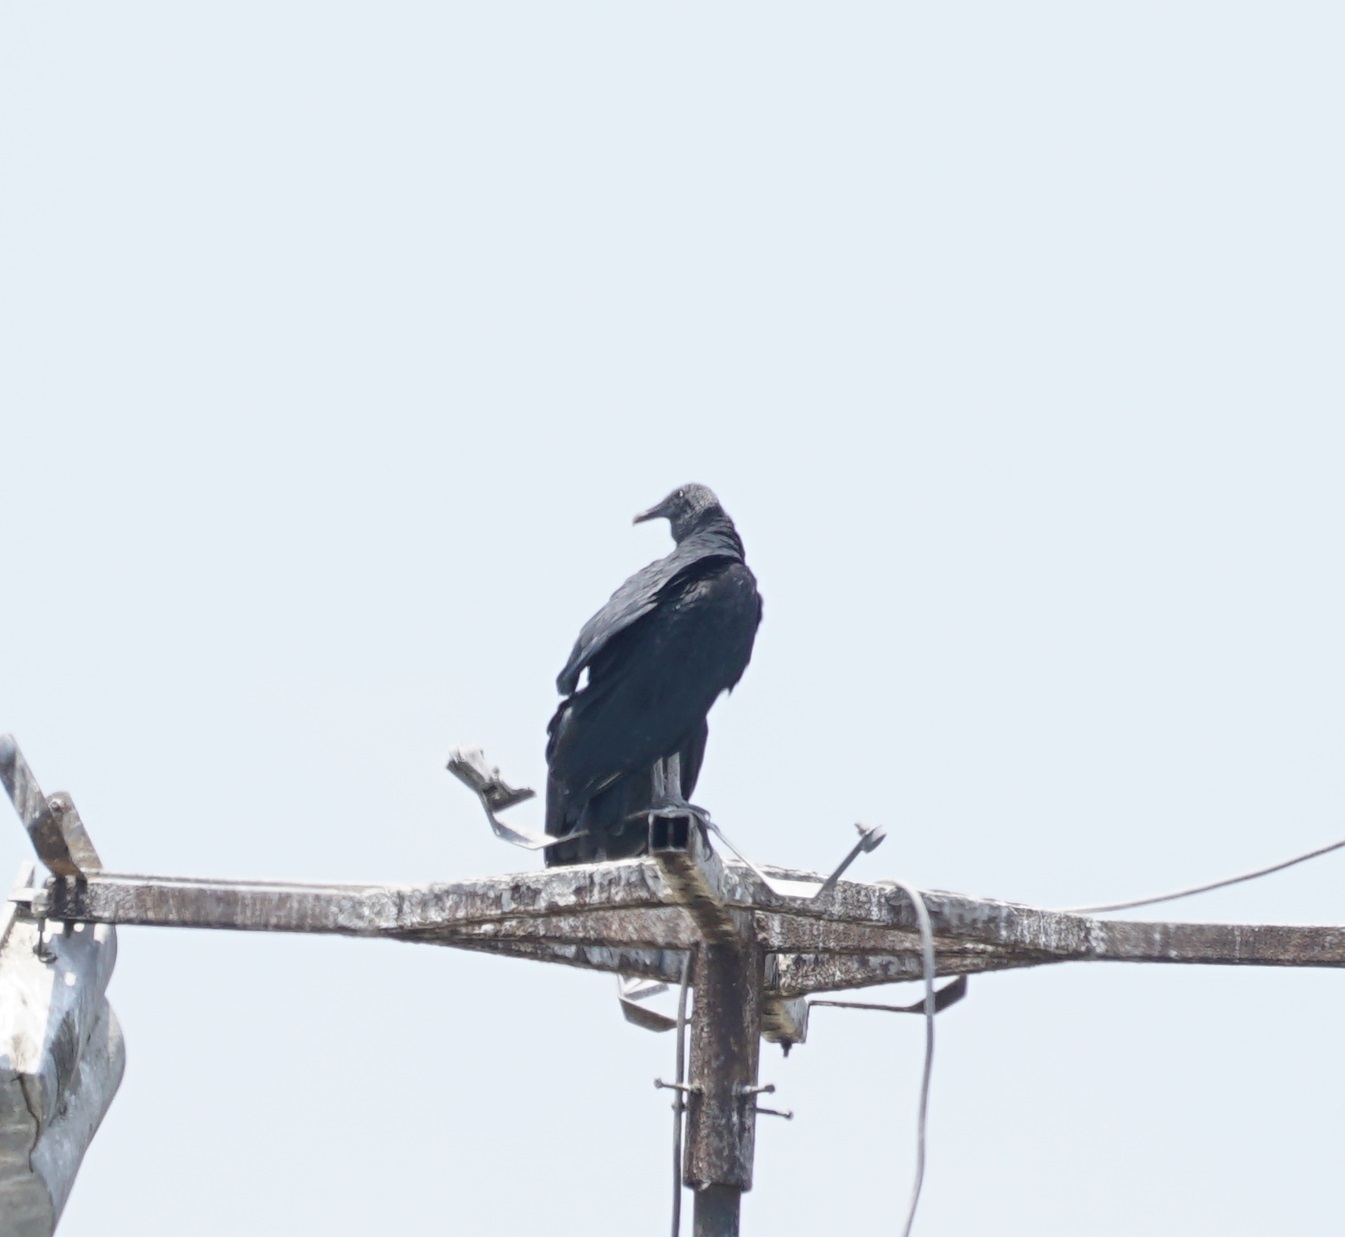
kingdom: Animalia
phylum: Chordata
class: Aves
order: Accipitriformes
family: Cathartidae
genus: Coragyps
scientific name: Coragyps atratus
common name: Black vulture
